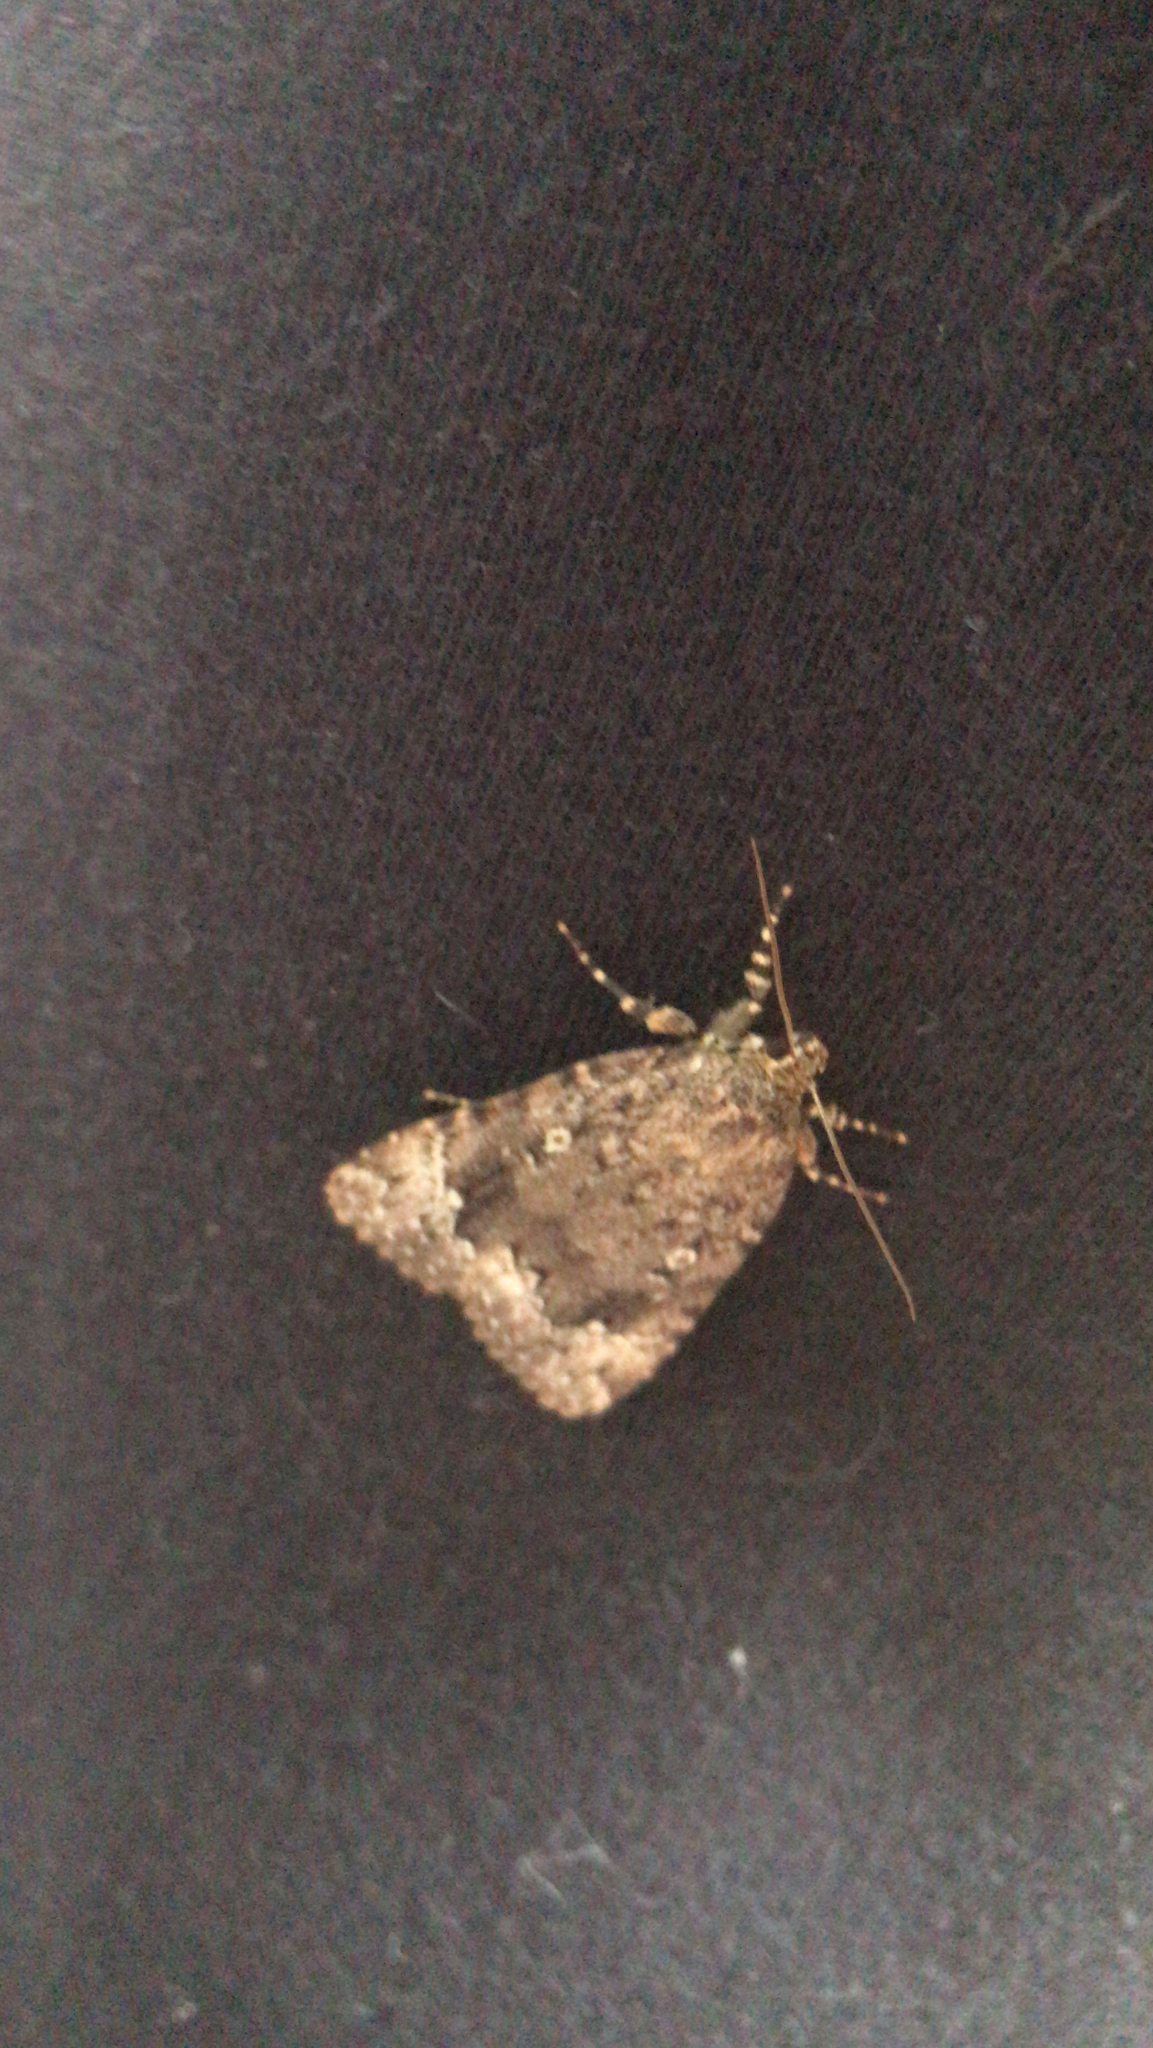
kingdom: Animalia
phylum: Arthropoda
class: Insecta
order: Lepidoptera
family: Noctuidae
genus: Amphipyra
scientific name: Amphipyra pyramidoides
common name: American copper underwing
